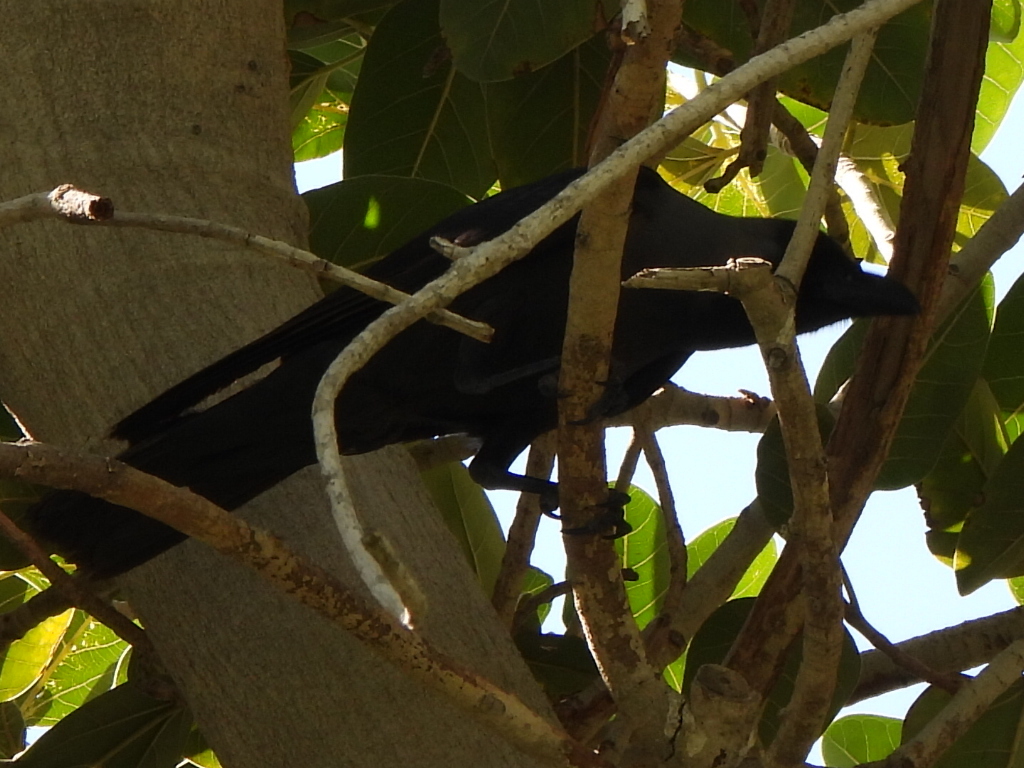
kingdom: Animalia
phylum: Chordata
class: Aves
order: Passeriformes
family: Corvidae
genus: Corvus
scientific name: Corvus splendens
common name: House crow
